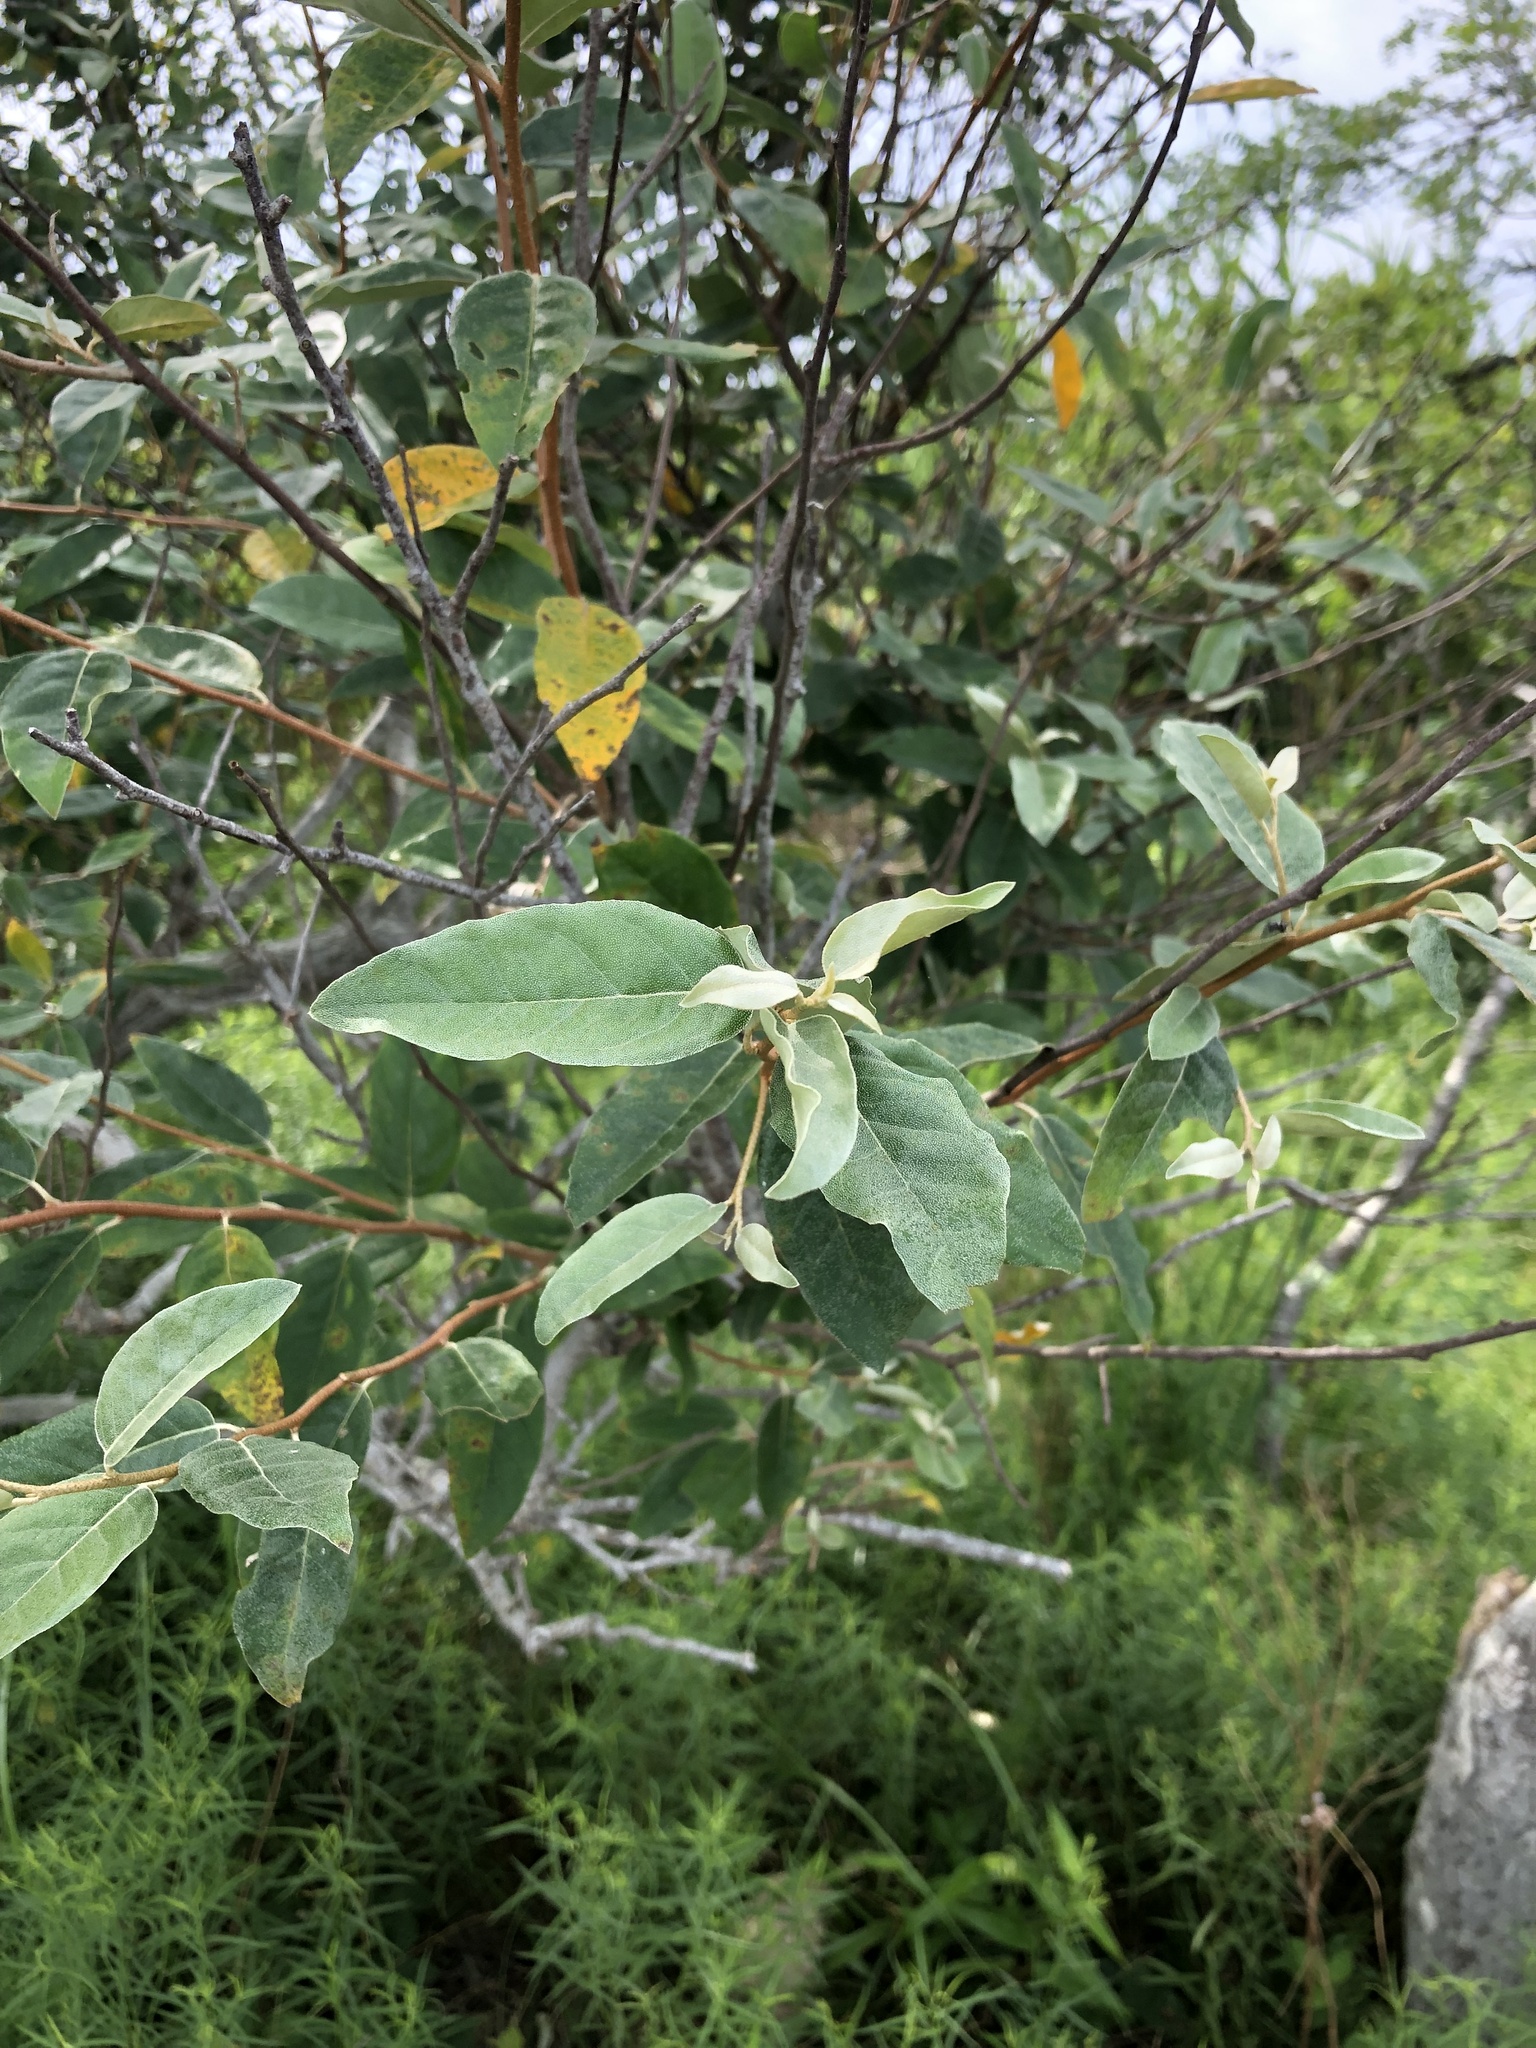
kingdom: Plantae
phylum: Tracheophyta
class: Magnoliopsida
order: Rosales
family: Elaeagnaceae
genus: Elaeagnus
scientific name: Elaeagnus umbellata
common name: Autumn olive
